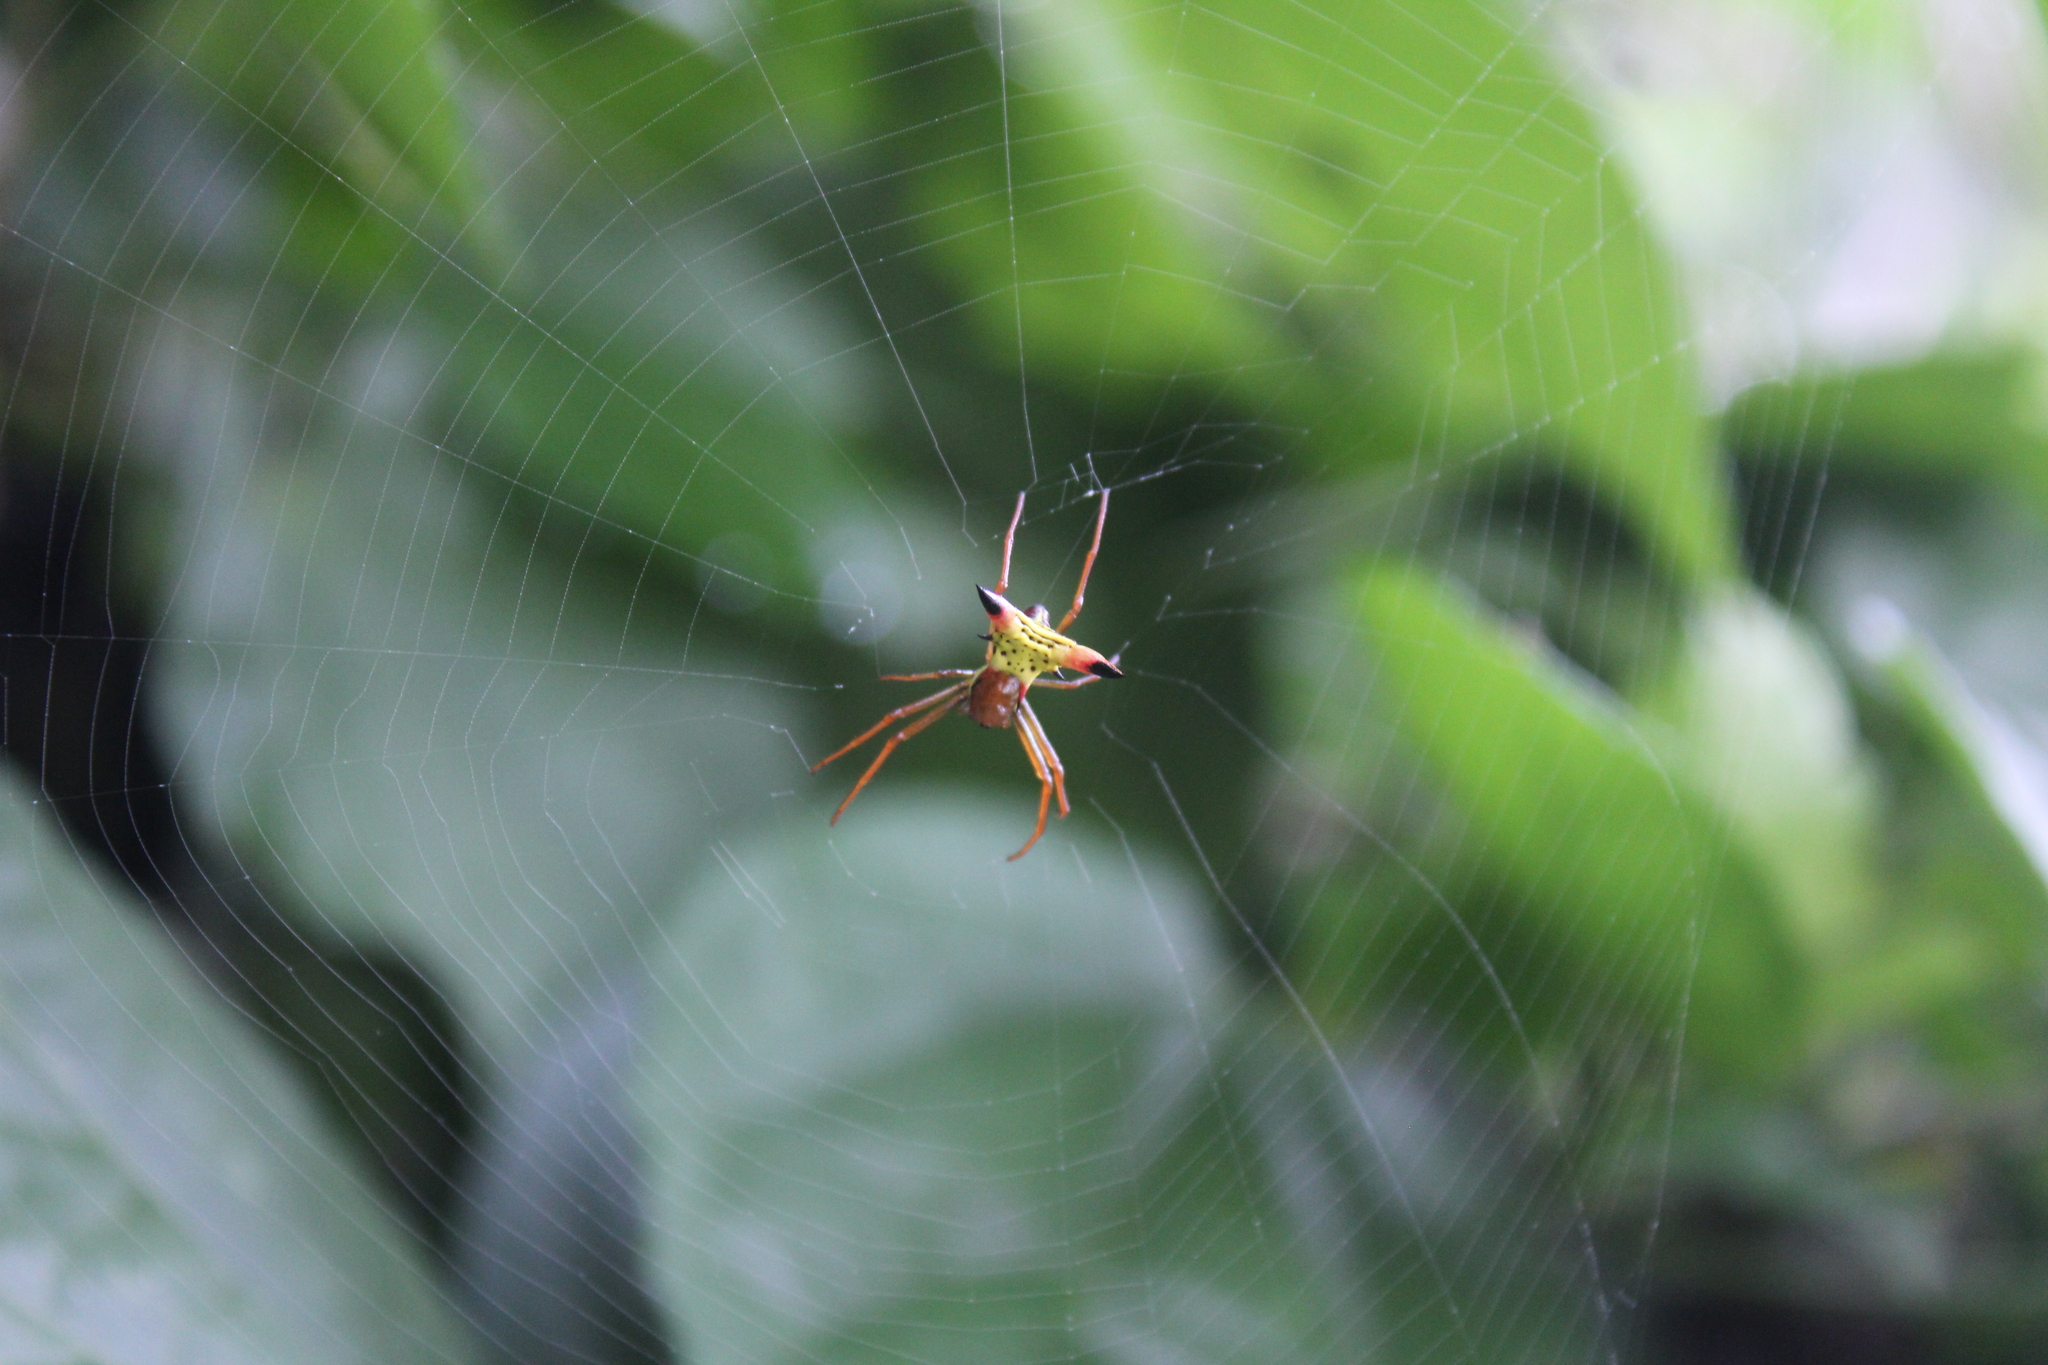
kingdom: Animalia
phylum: Arthropoda
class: Arachnida
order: Araneae
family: Araneidae
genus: Micrathena
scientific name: Micrathena sagittata
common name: Orb weavers
